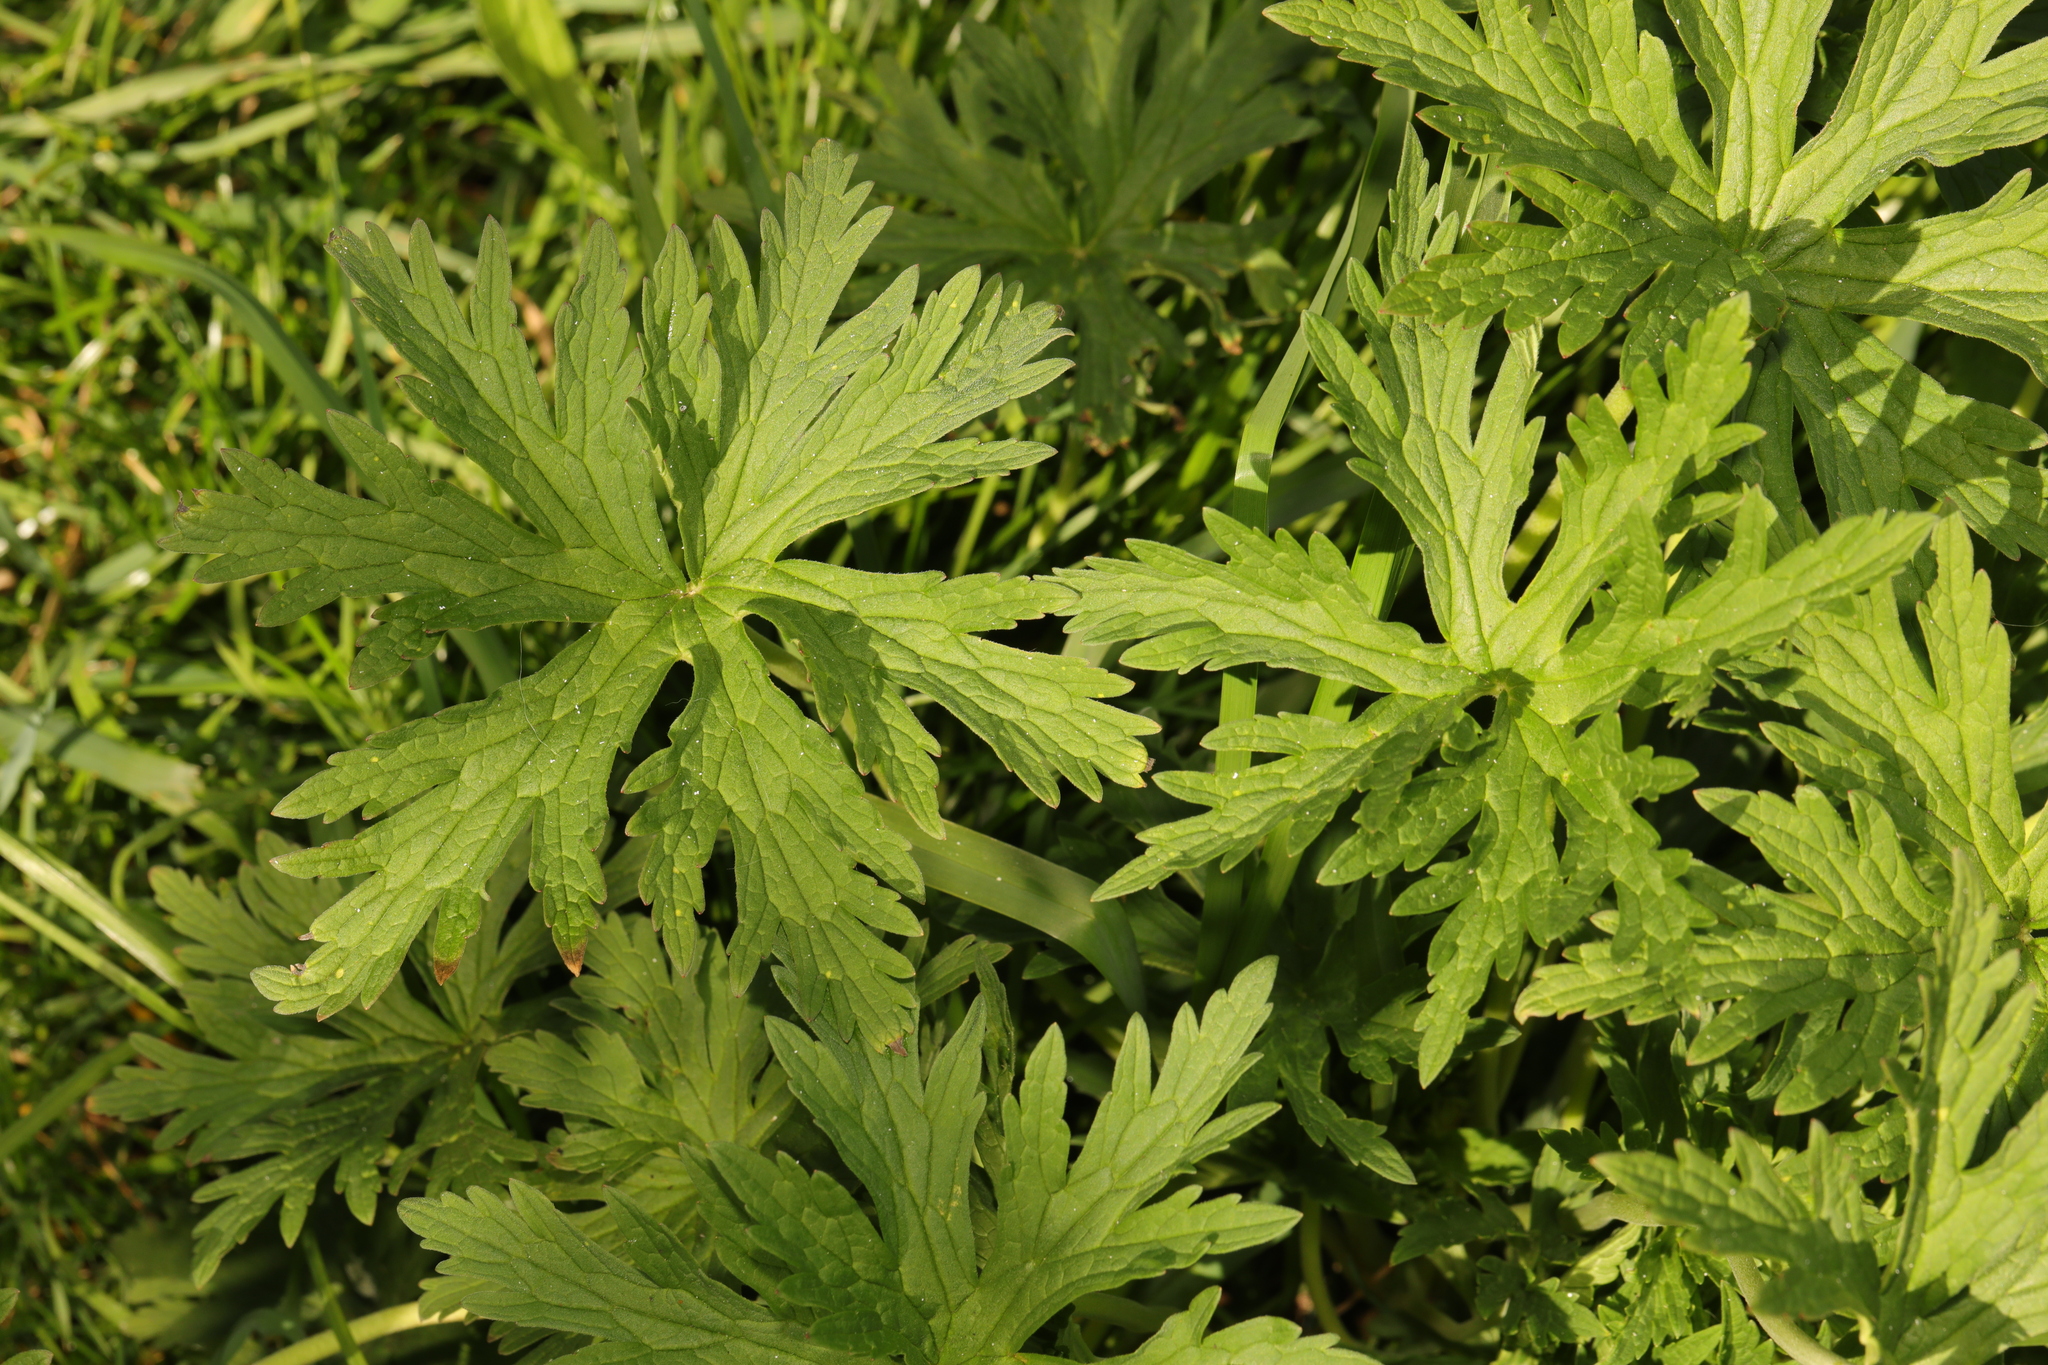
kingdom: Plantae
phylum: Tracheophyta
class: Magnoliopsida
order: Geraniales
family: Geraniaceae
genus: Geranium
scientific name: Geranium pratense
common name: Meadow crane's-bill
